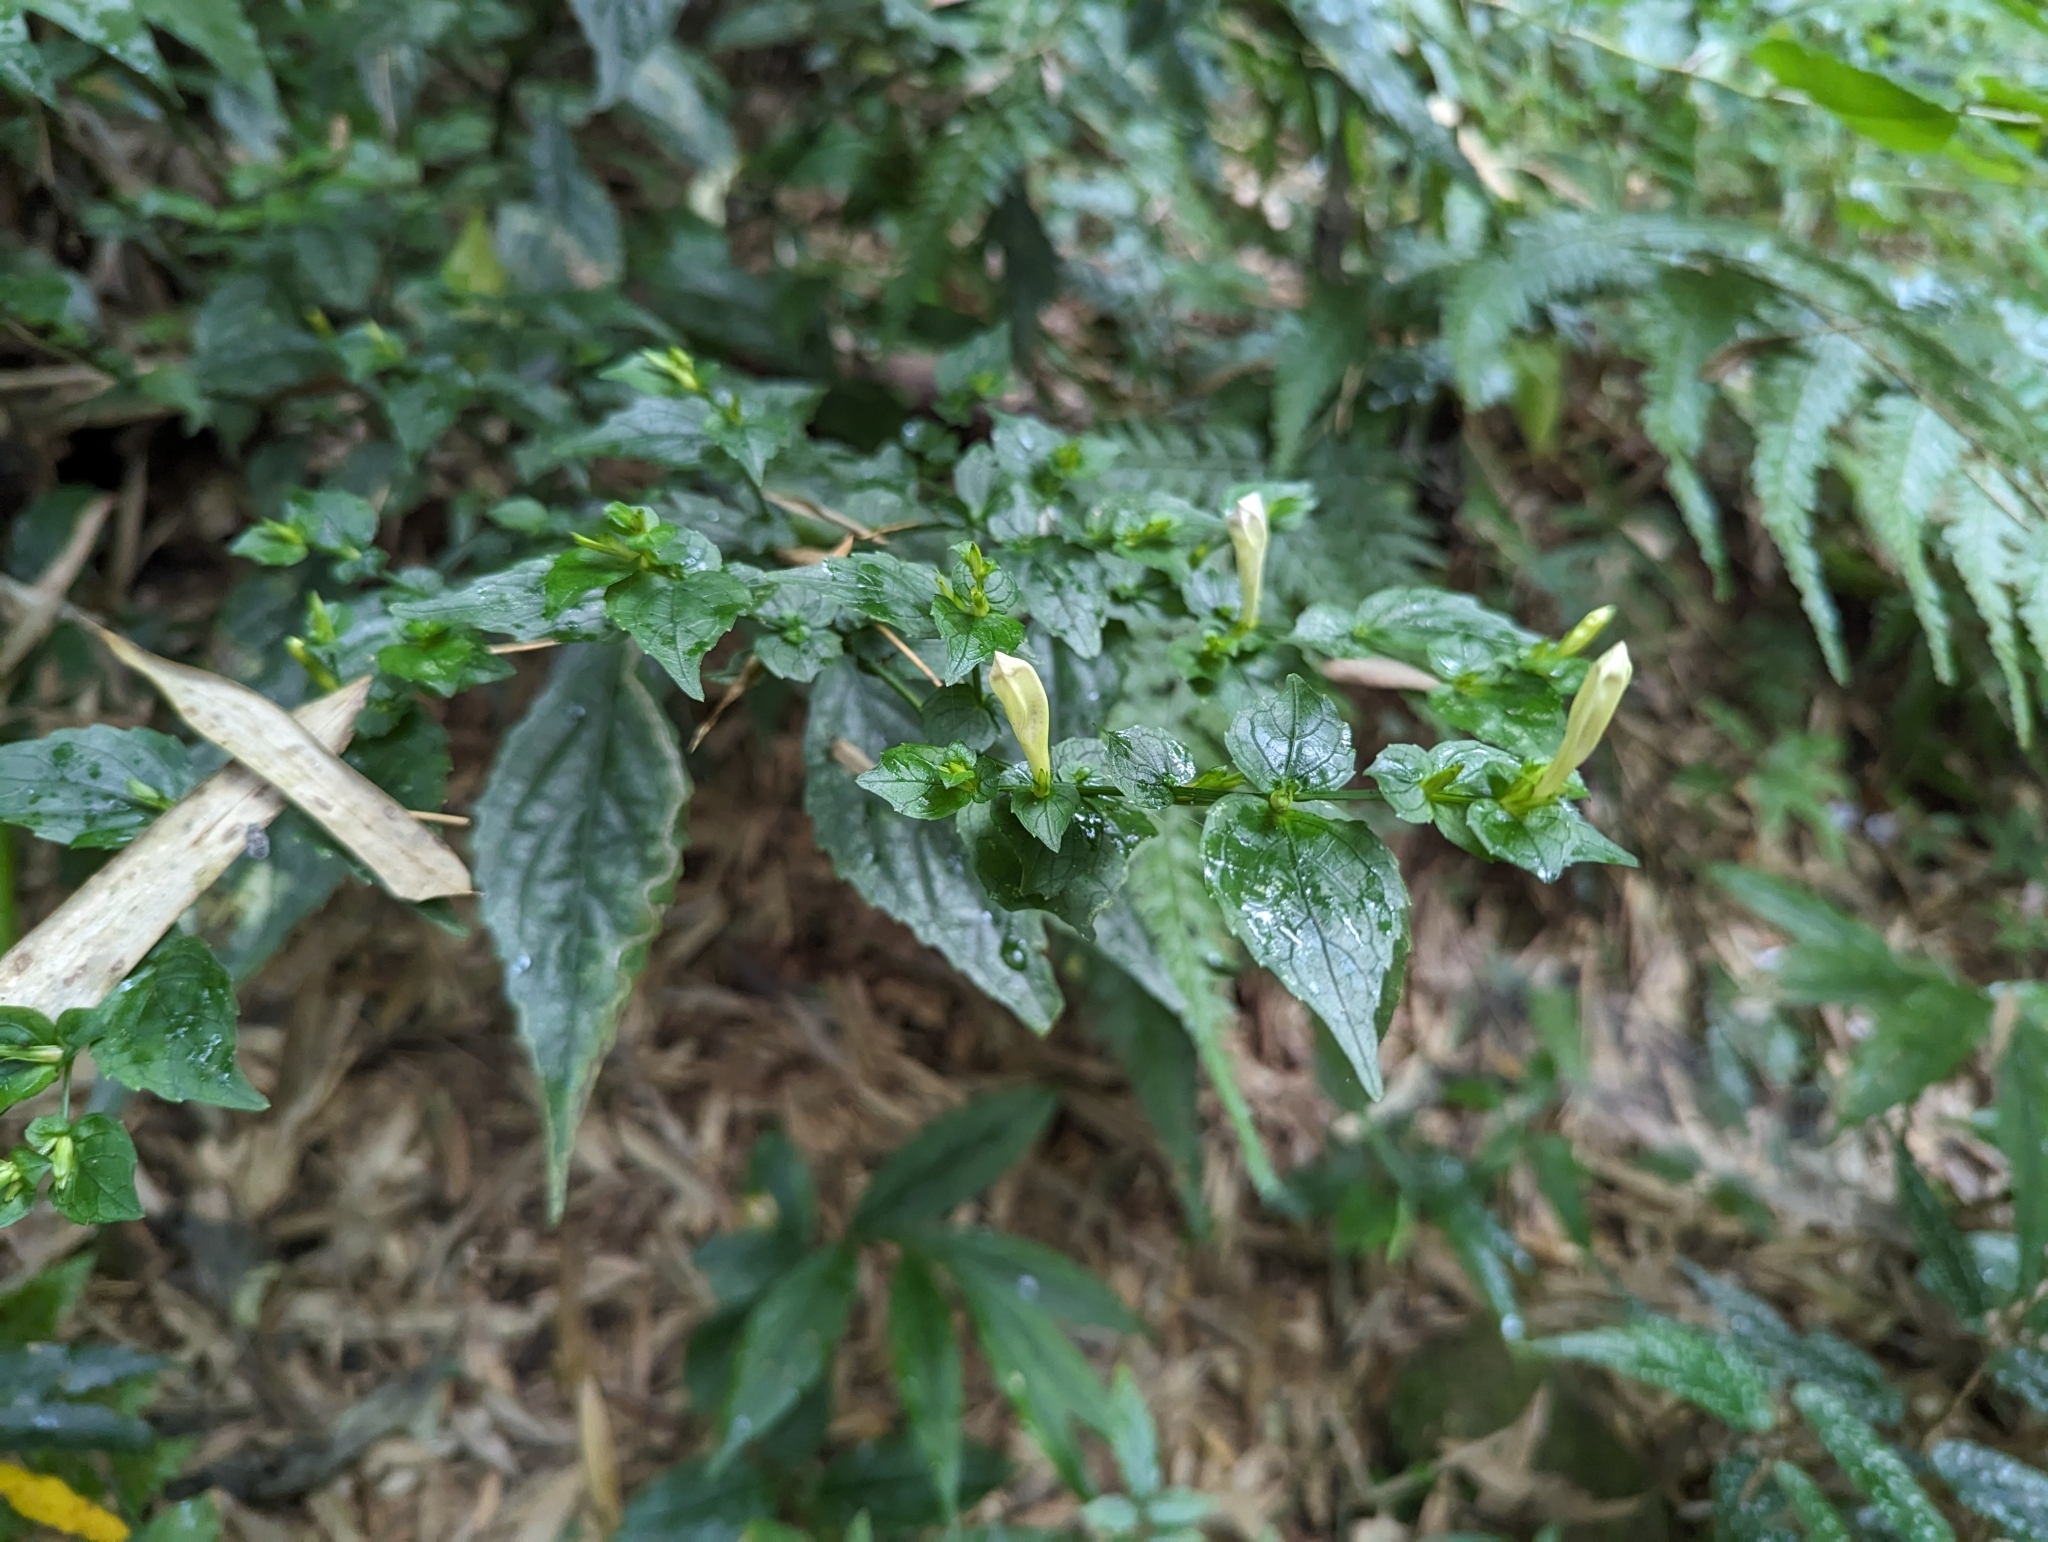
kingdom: Plantae
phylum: Tracheophyta
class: Magnoliopsida
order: Lamiales
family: Acanthaceae
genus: Strobilanthes
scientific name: Strobilanthes flexicaulis
